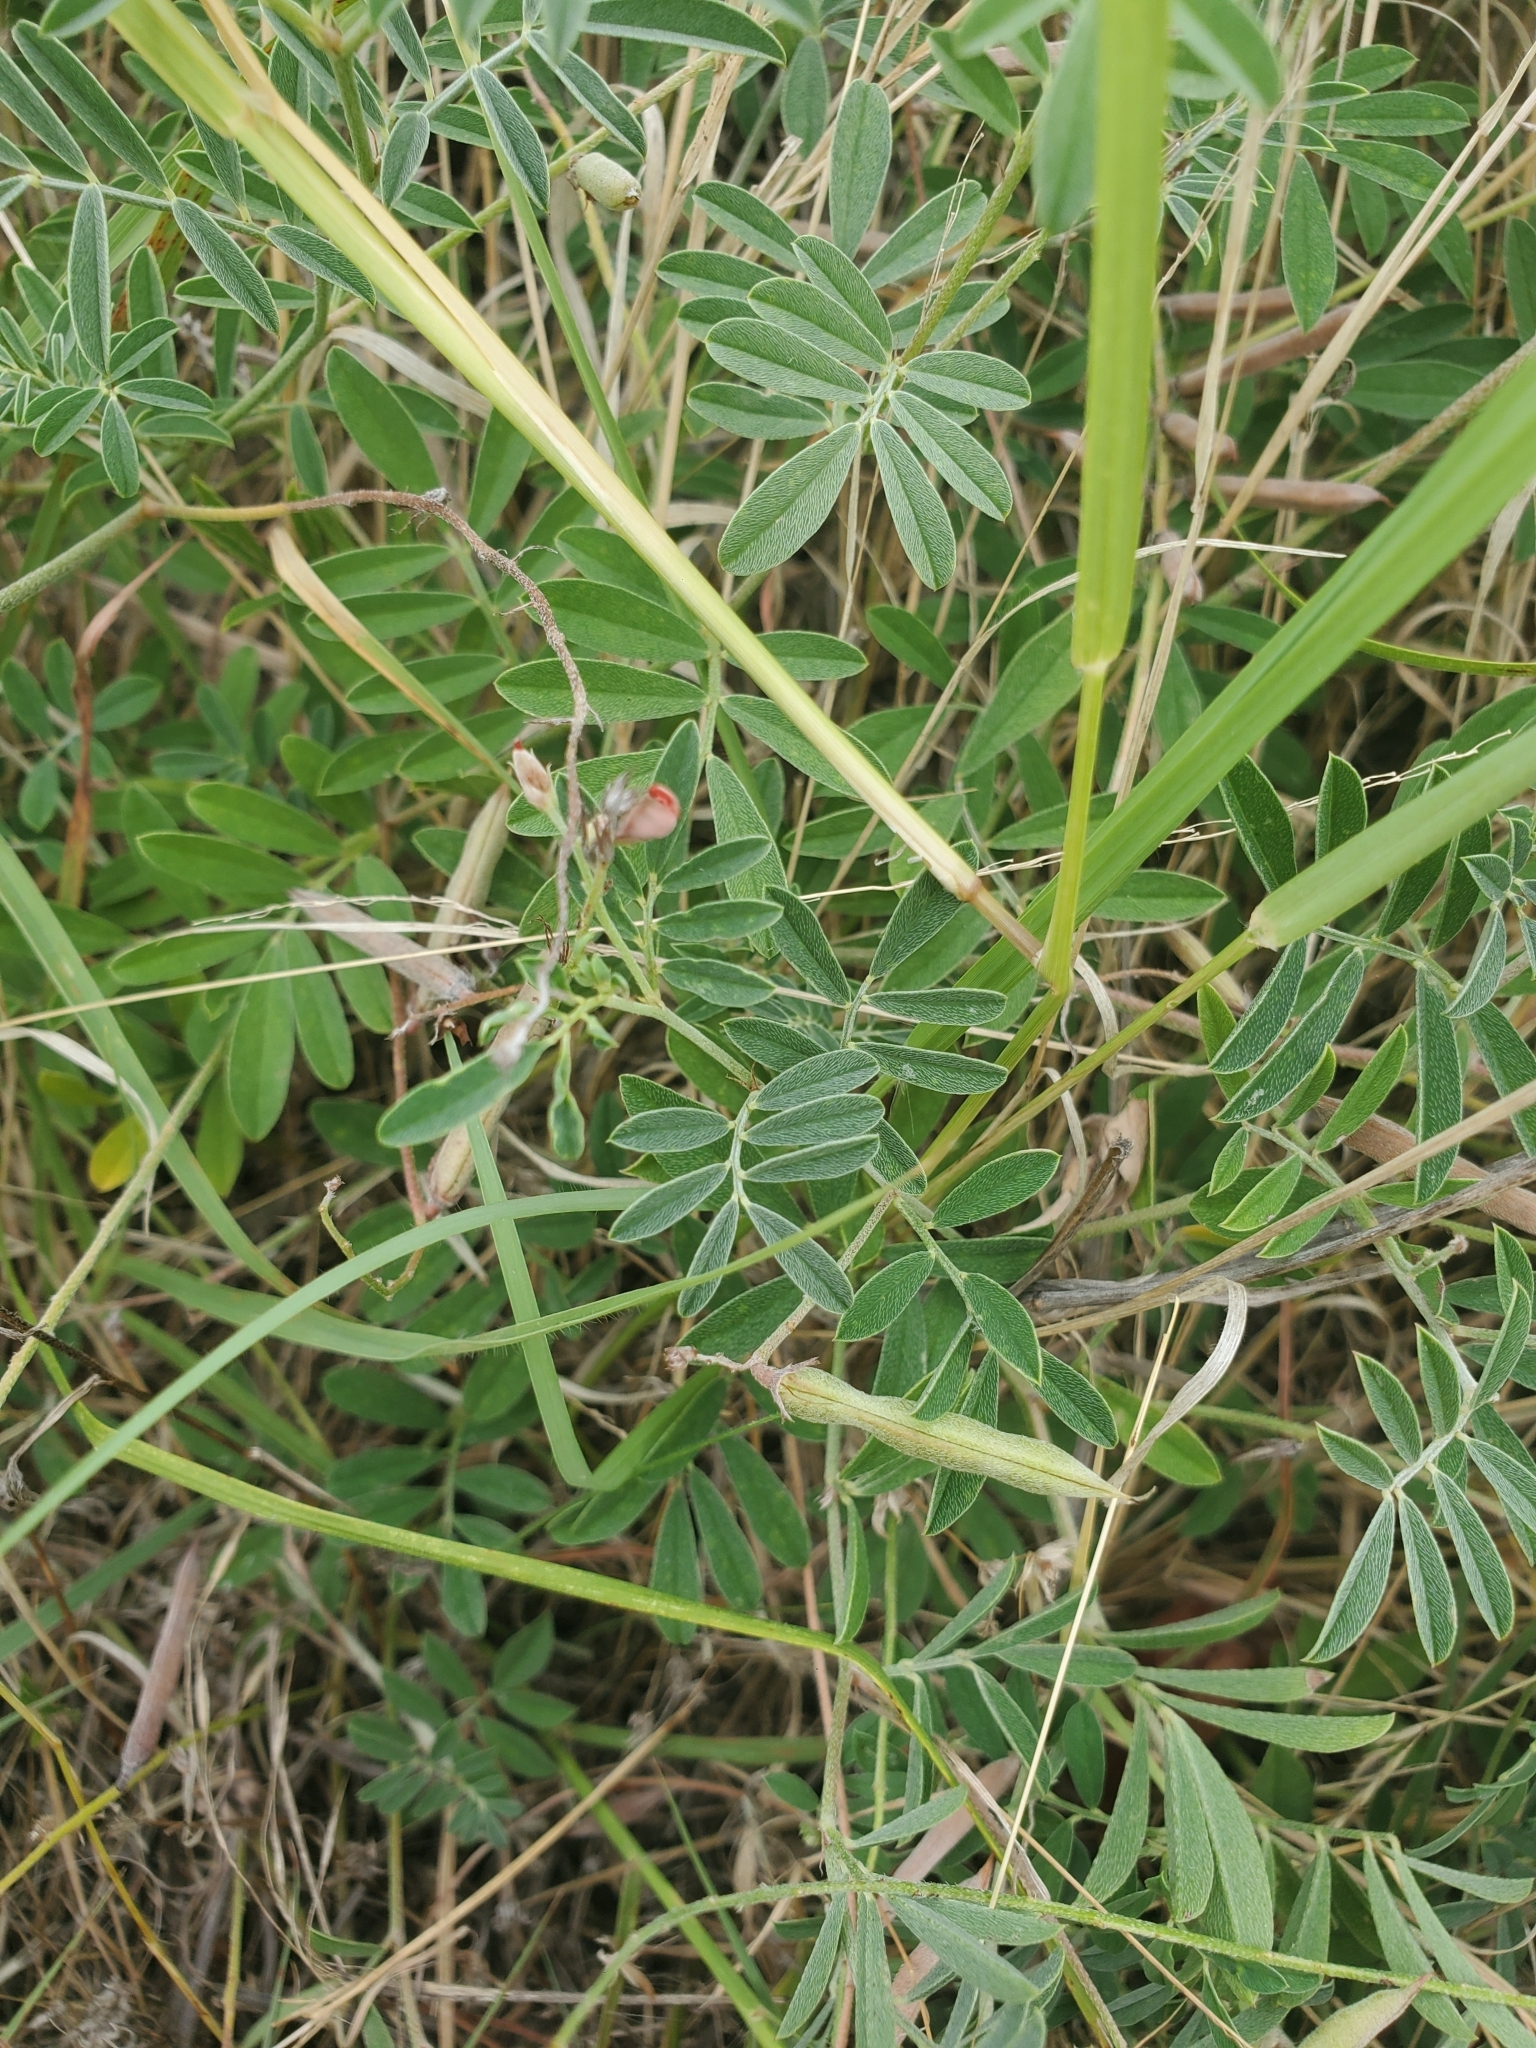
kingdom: Plantae
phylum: Tracheophyta
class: Magnoliopsida
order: Fabales
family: Fabaceae
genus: Indigofera
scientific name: Indigofera miniata
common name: Coast indigo
